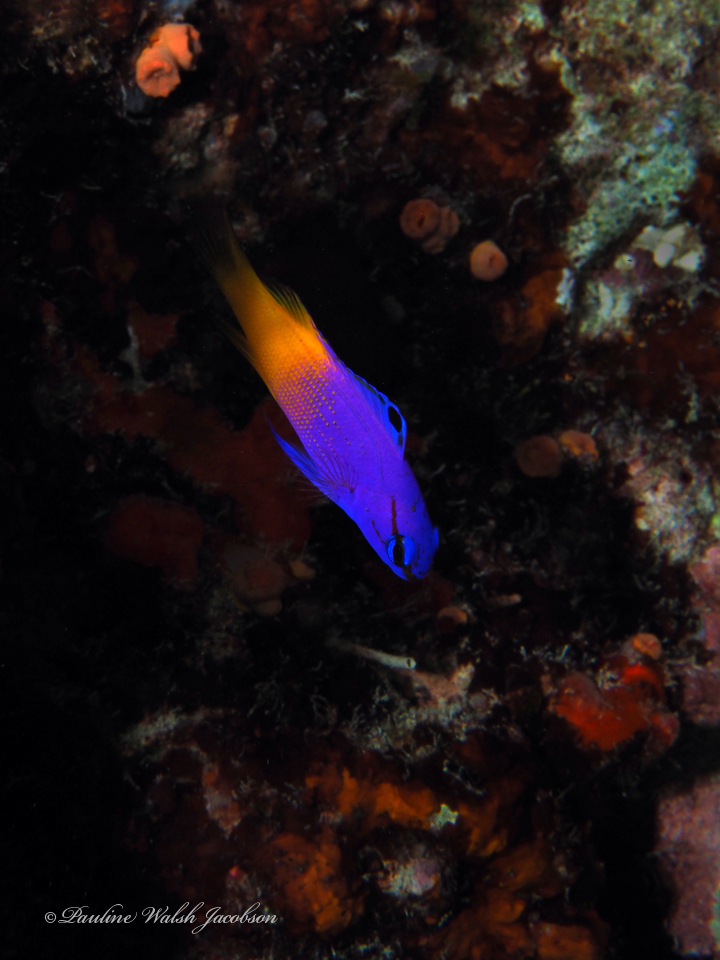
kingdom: Animalia
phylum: Chordata
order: Perciformes
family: Grammatidae
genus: Gramma
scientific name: Gramma loreto
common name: Fairy basslet
